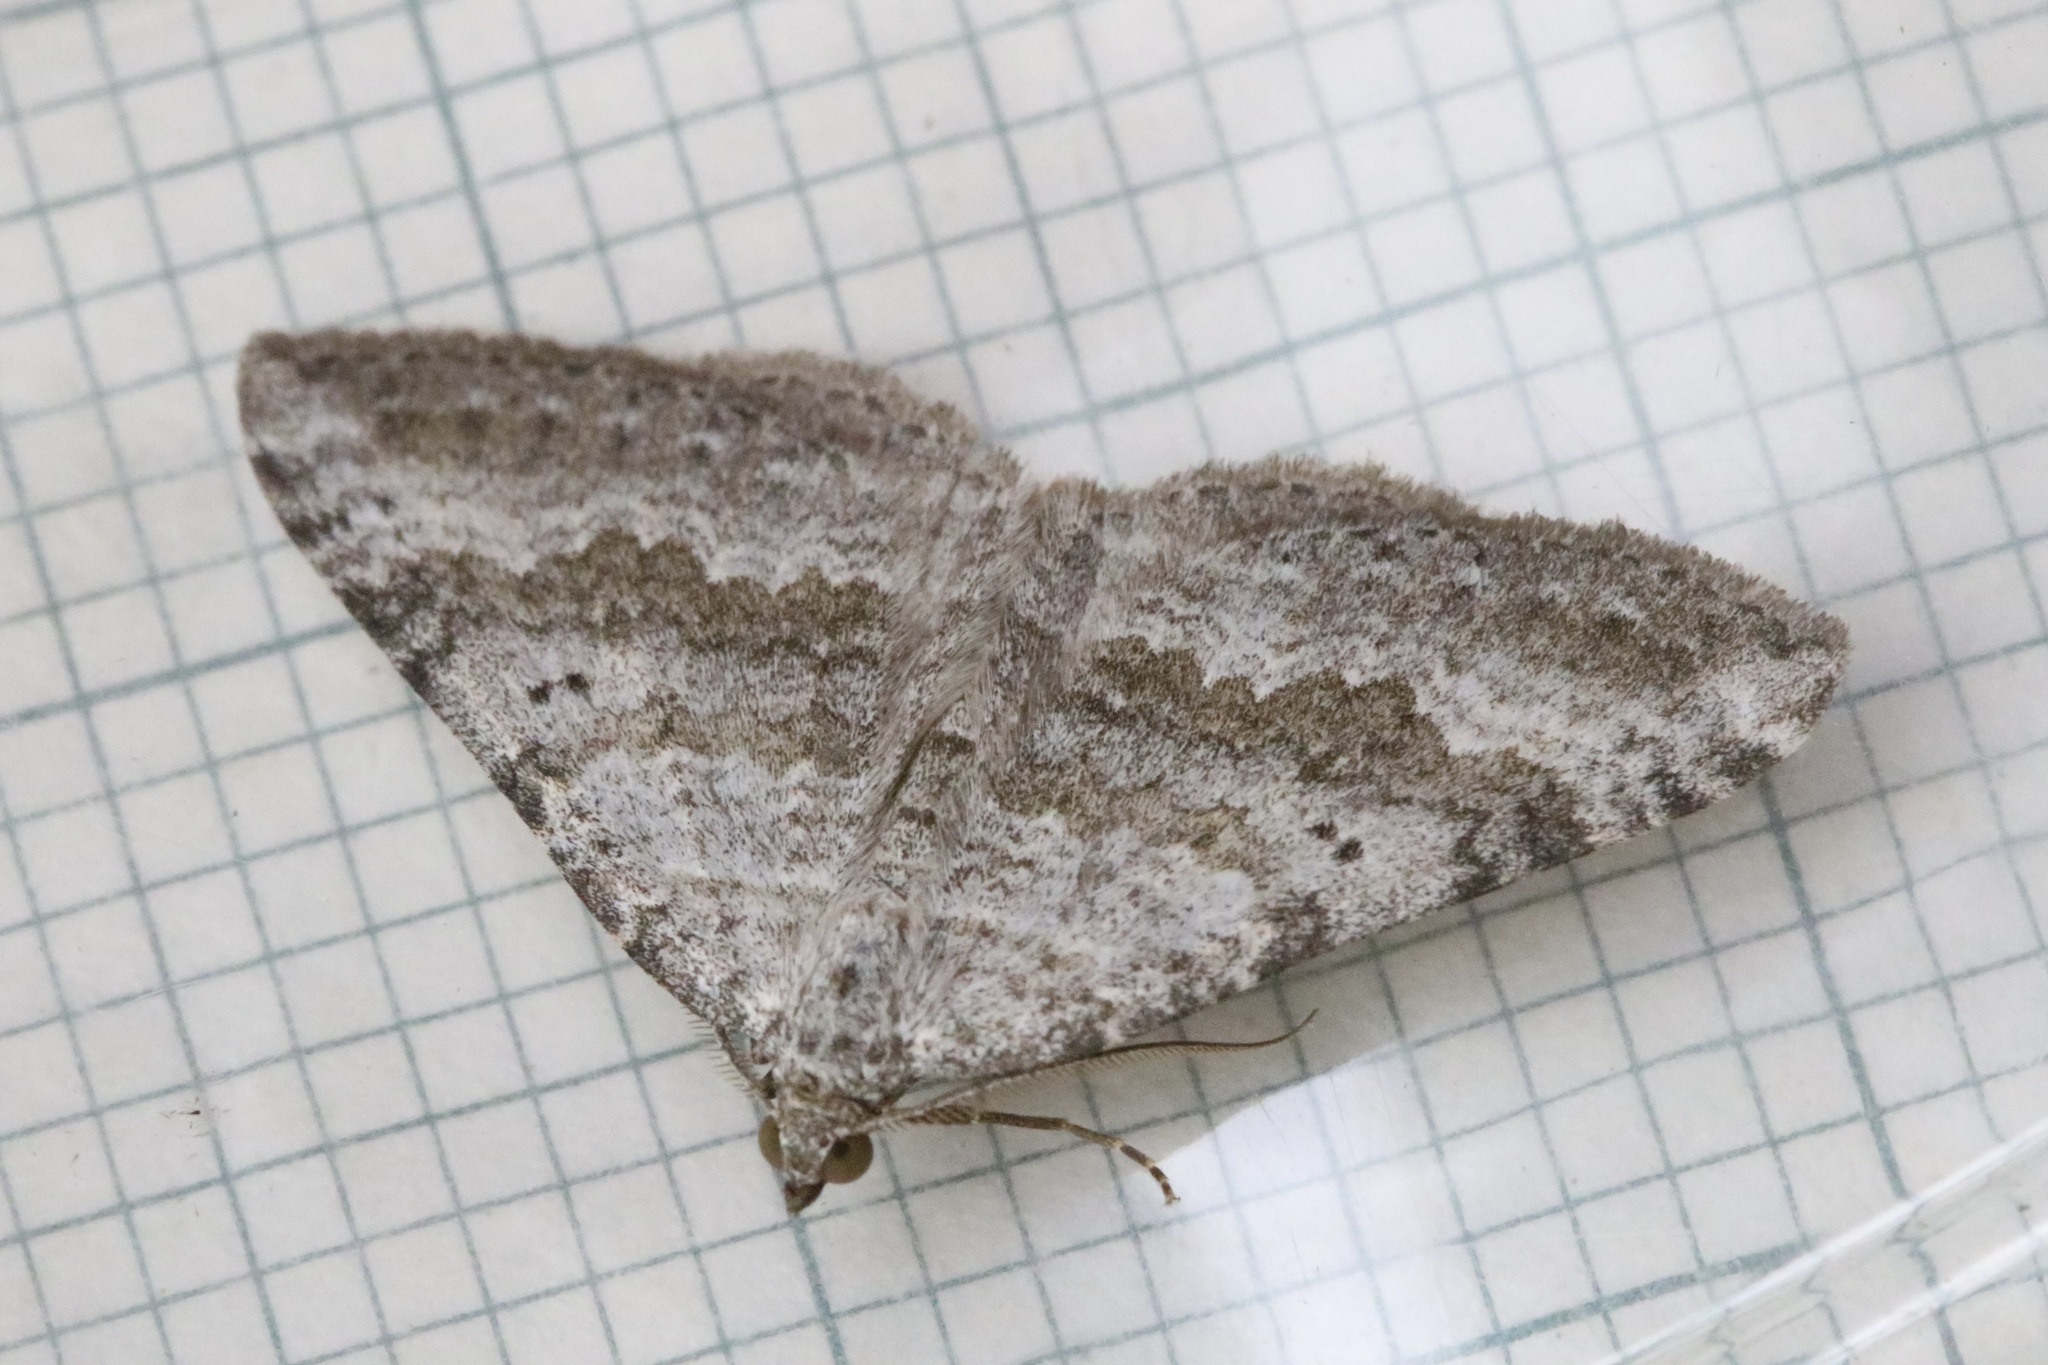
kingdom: Animalia
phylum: Arthropoda
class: Insecta
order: Lepidoptera
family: Geometridae
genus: Scotopteryx
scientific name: Scotopteryx bipunctaria
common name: Chalk carpet
